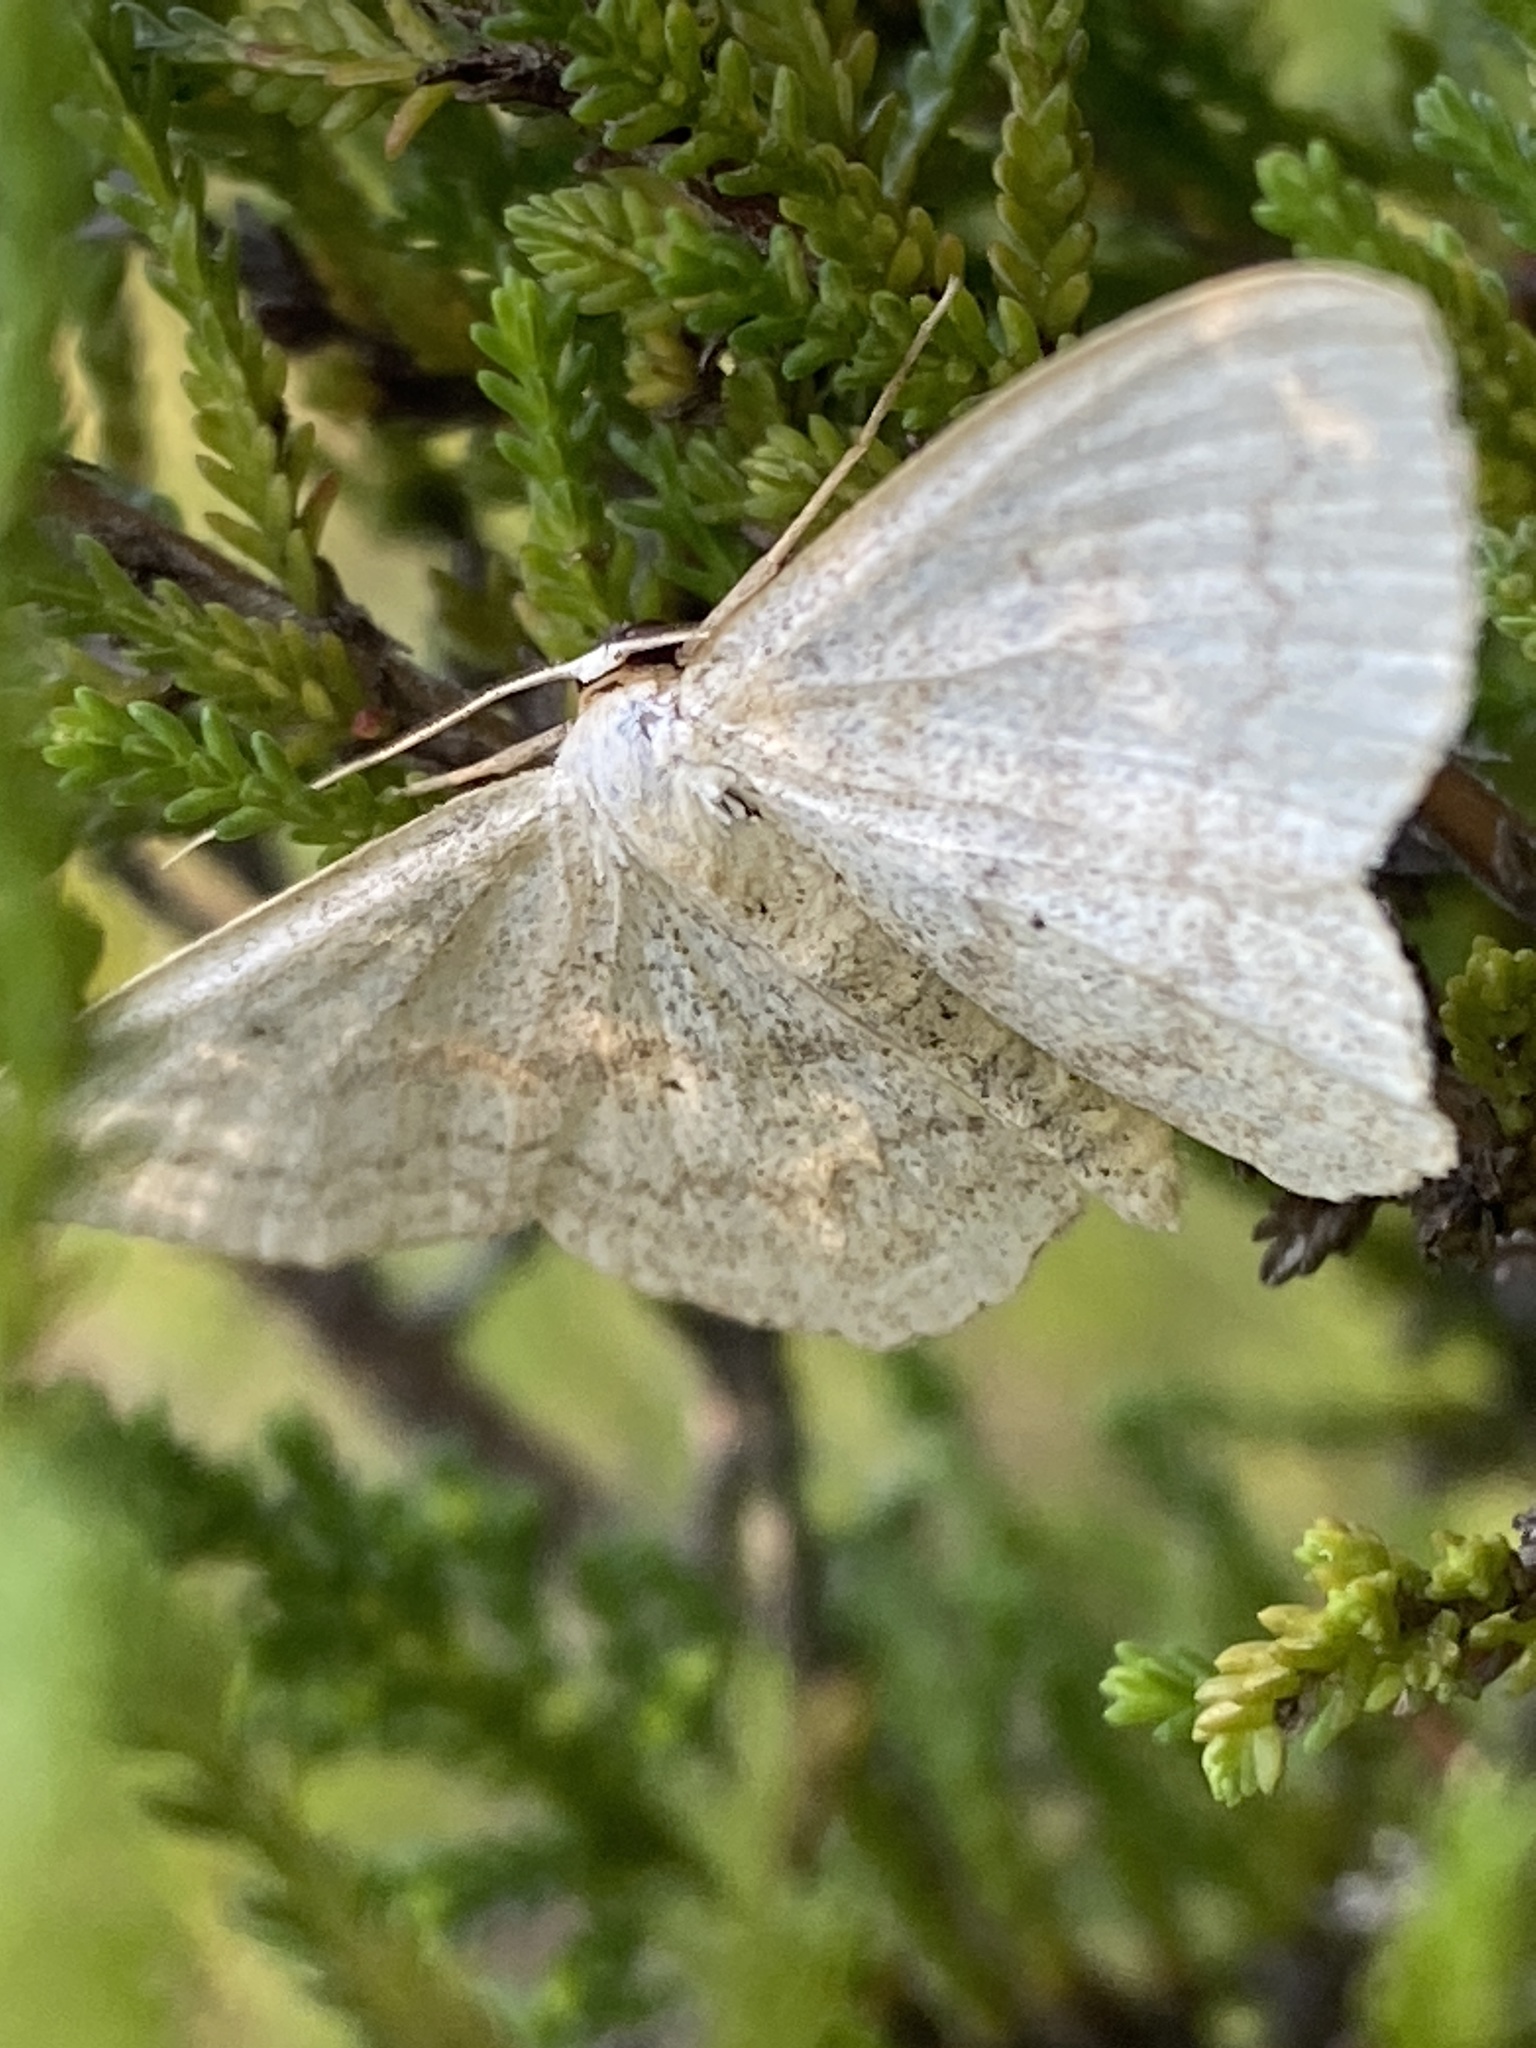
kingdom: Animalia
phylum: Arthropoda
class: Insecta
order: Lepidoptera
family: Geometridae
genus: Scopula
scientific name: Scopula incanata
